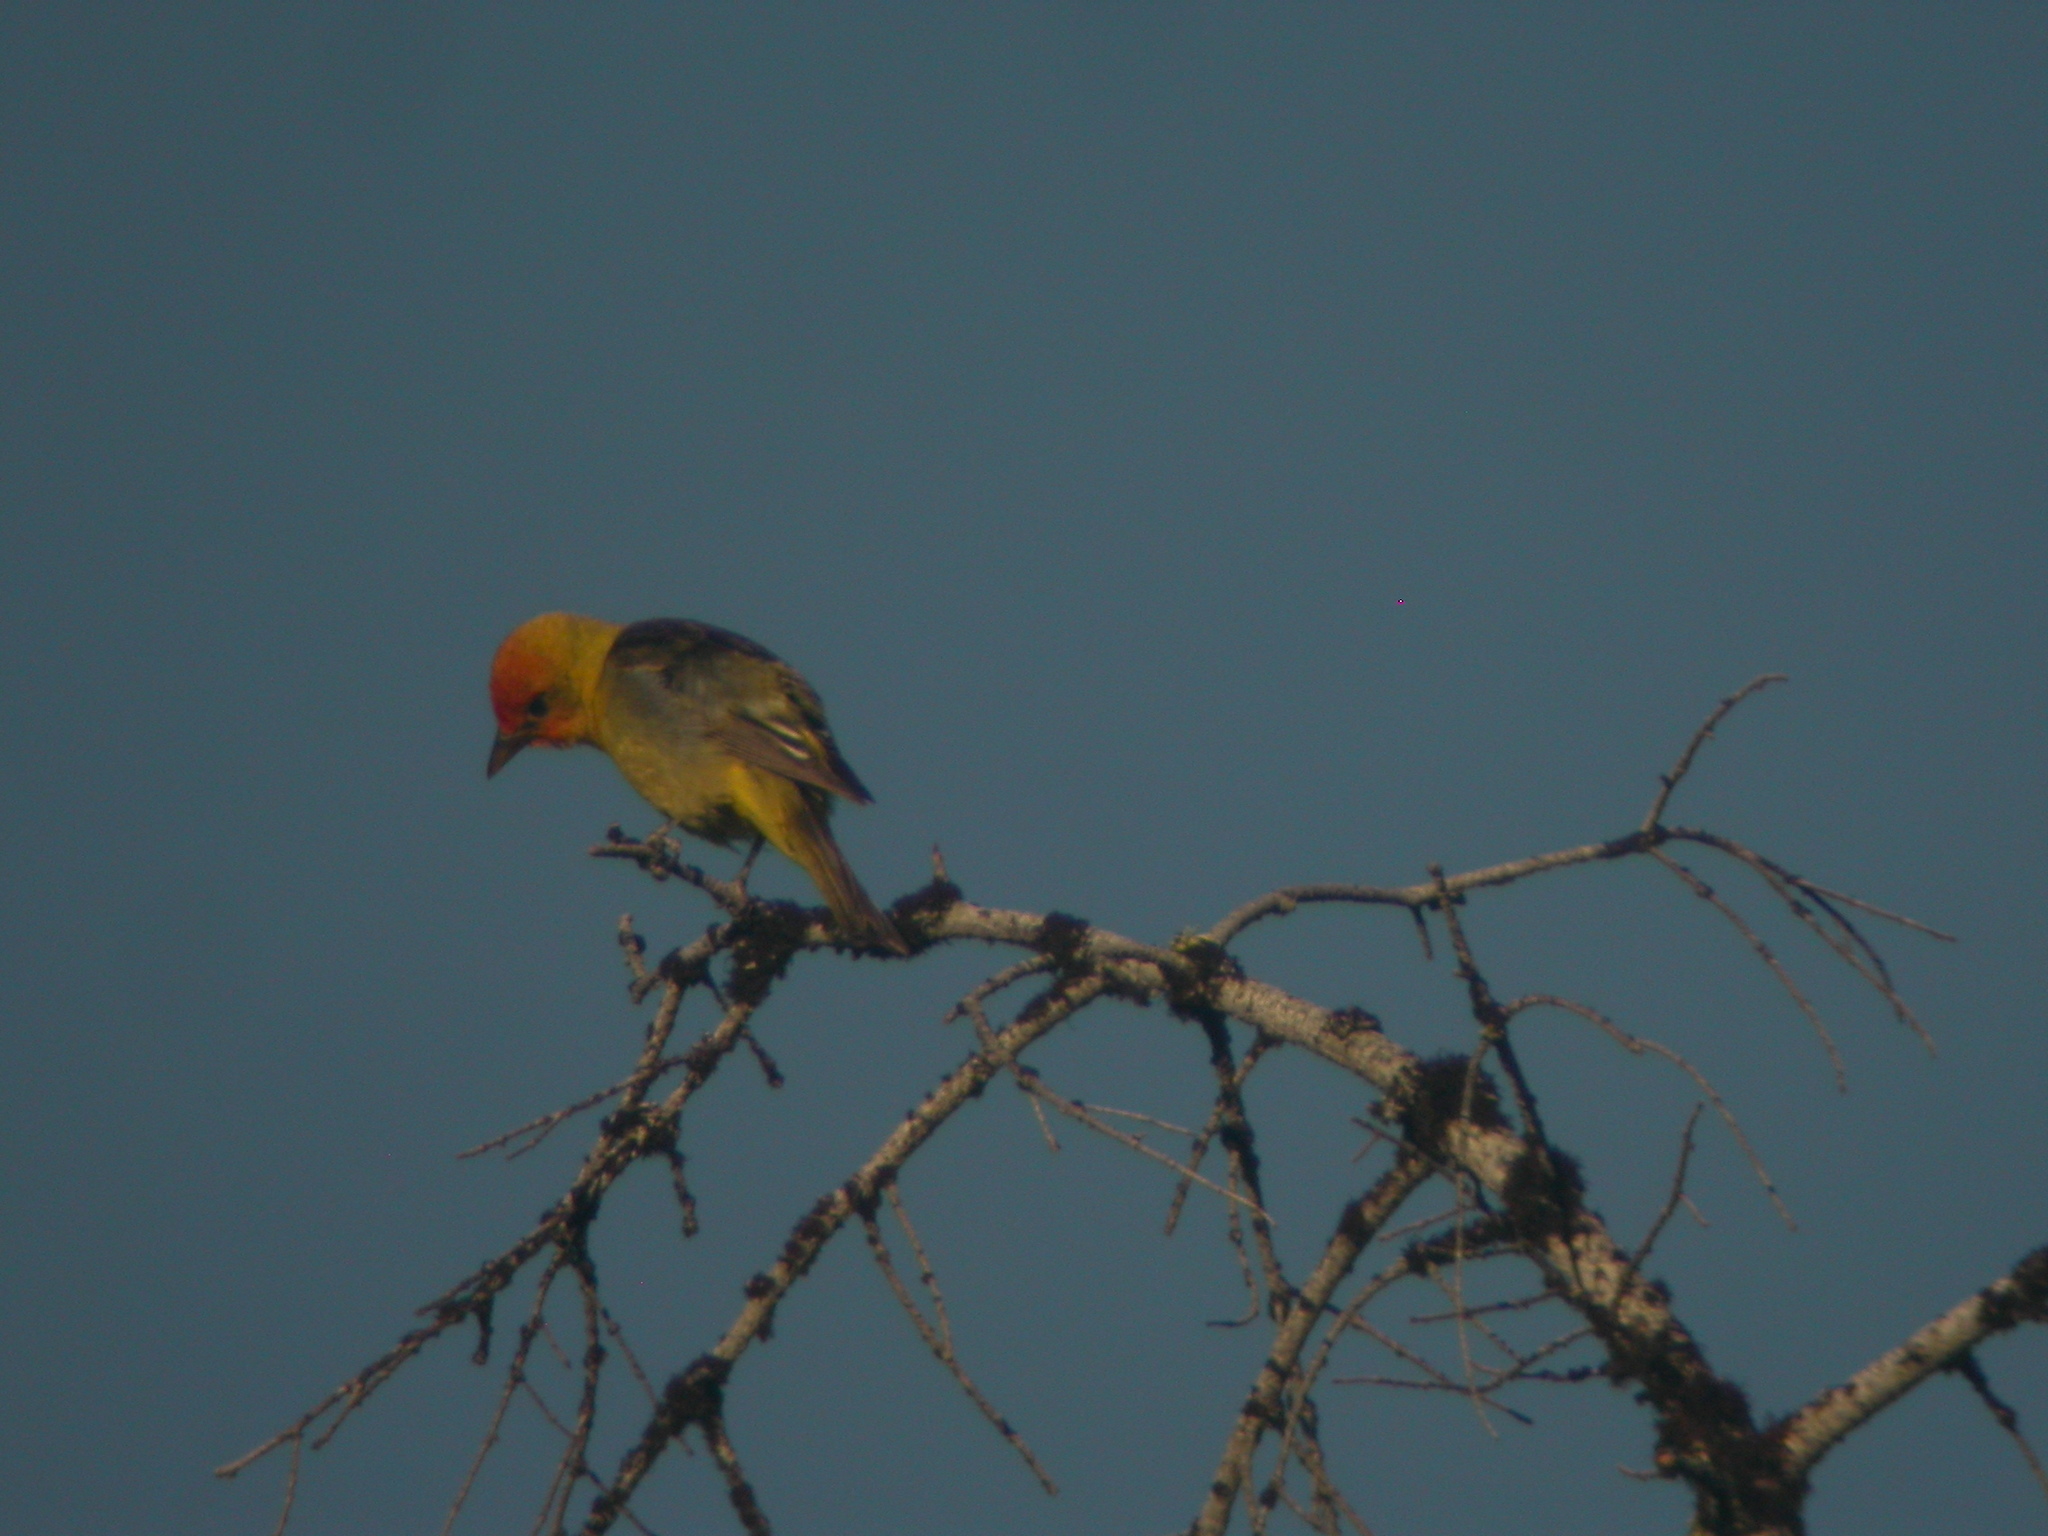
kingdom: Animalia
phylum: Chordata
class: Aves
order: Passeriformes
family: Cardinalidae
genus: Piranga
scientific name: Piranga ludoviciana
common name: Western tanager
